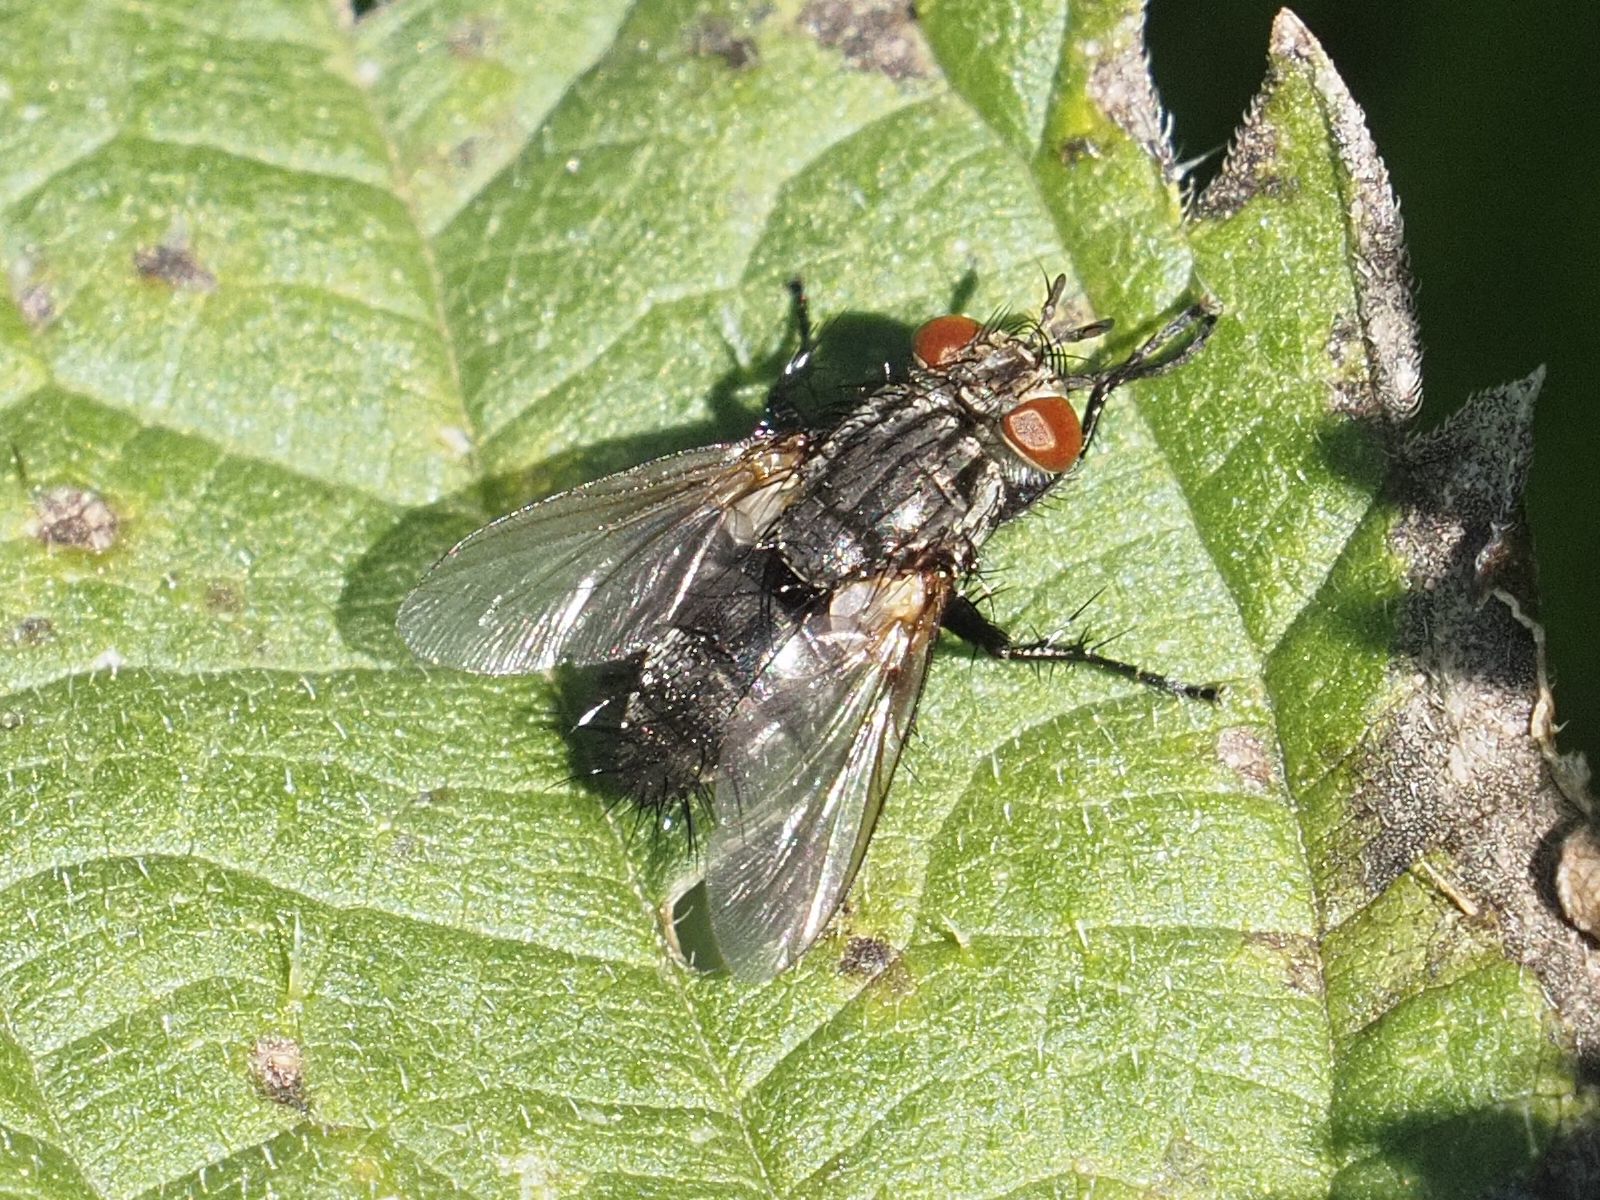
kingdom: Animalia
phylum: Arthropoda
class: Insecta
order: Diptera
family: Tachinidae
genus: Voria
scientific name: Voria ruralis
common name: Parasitic fly
